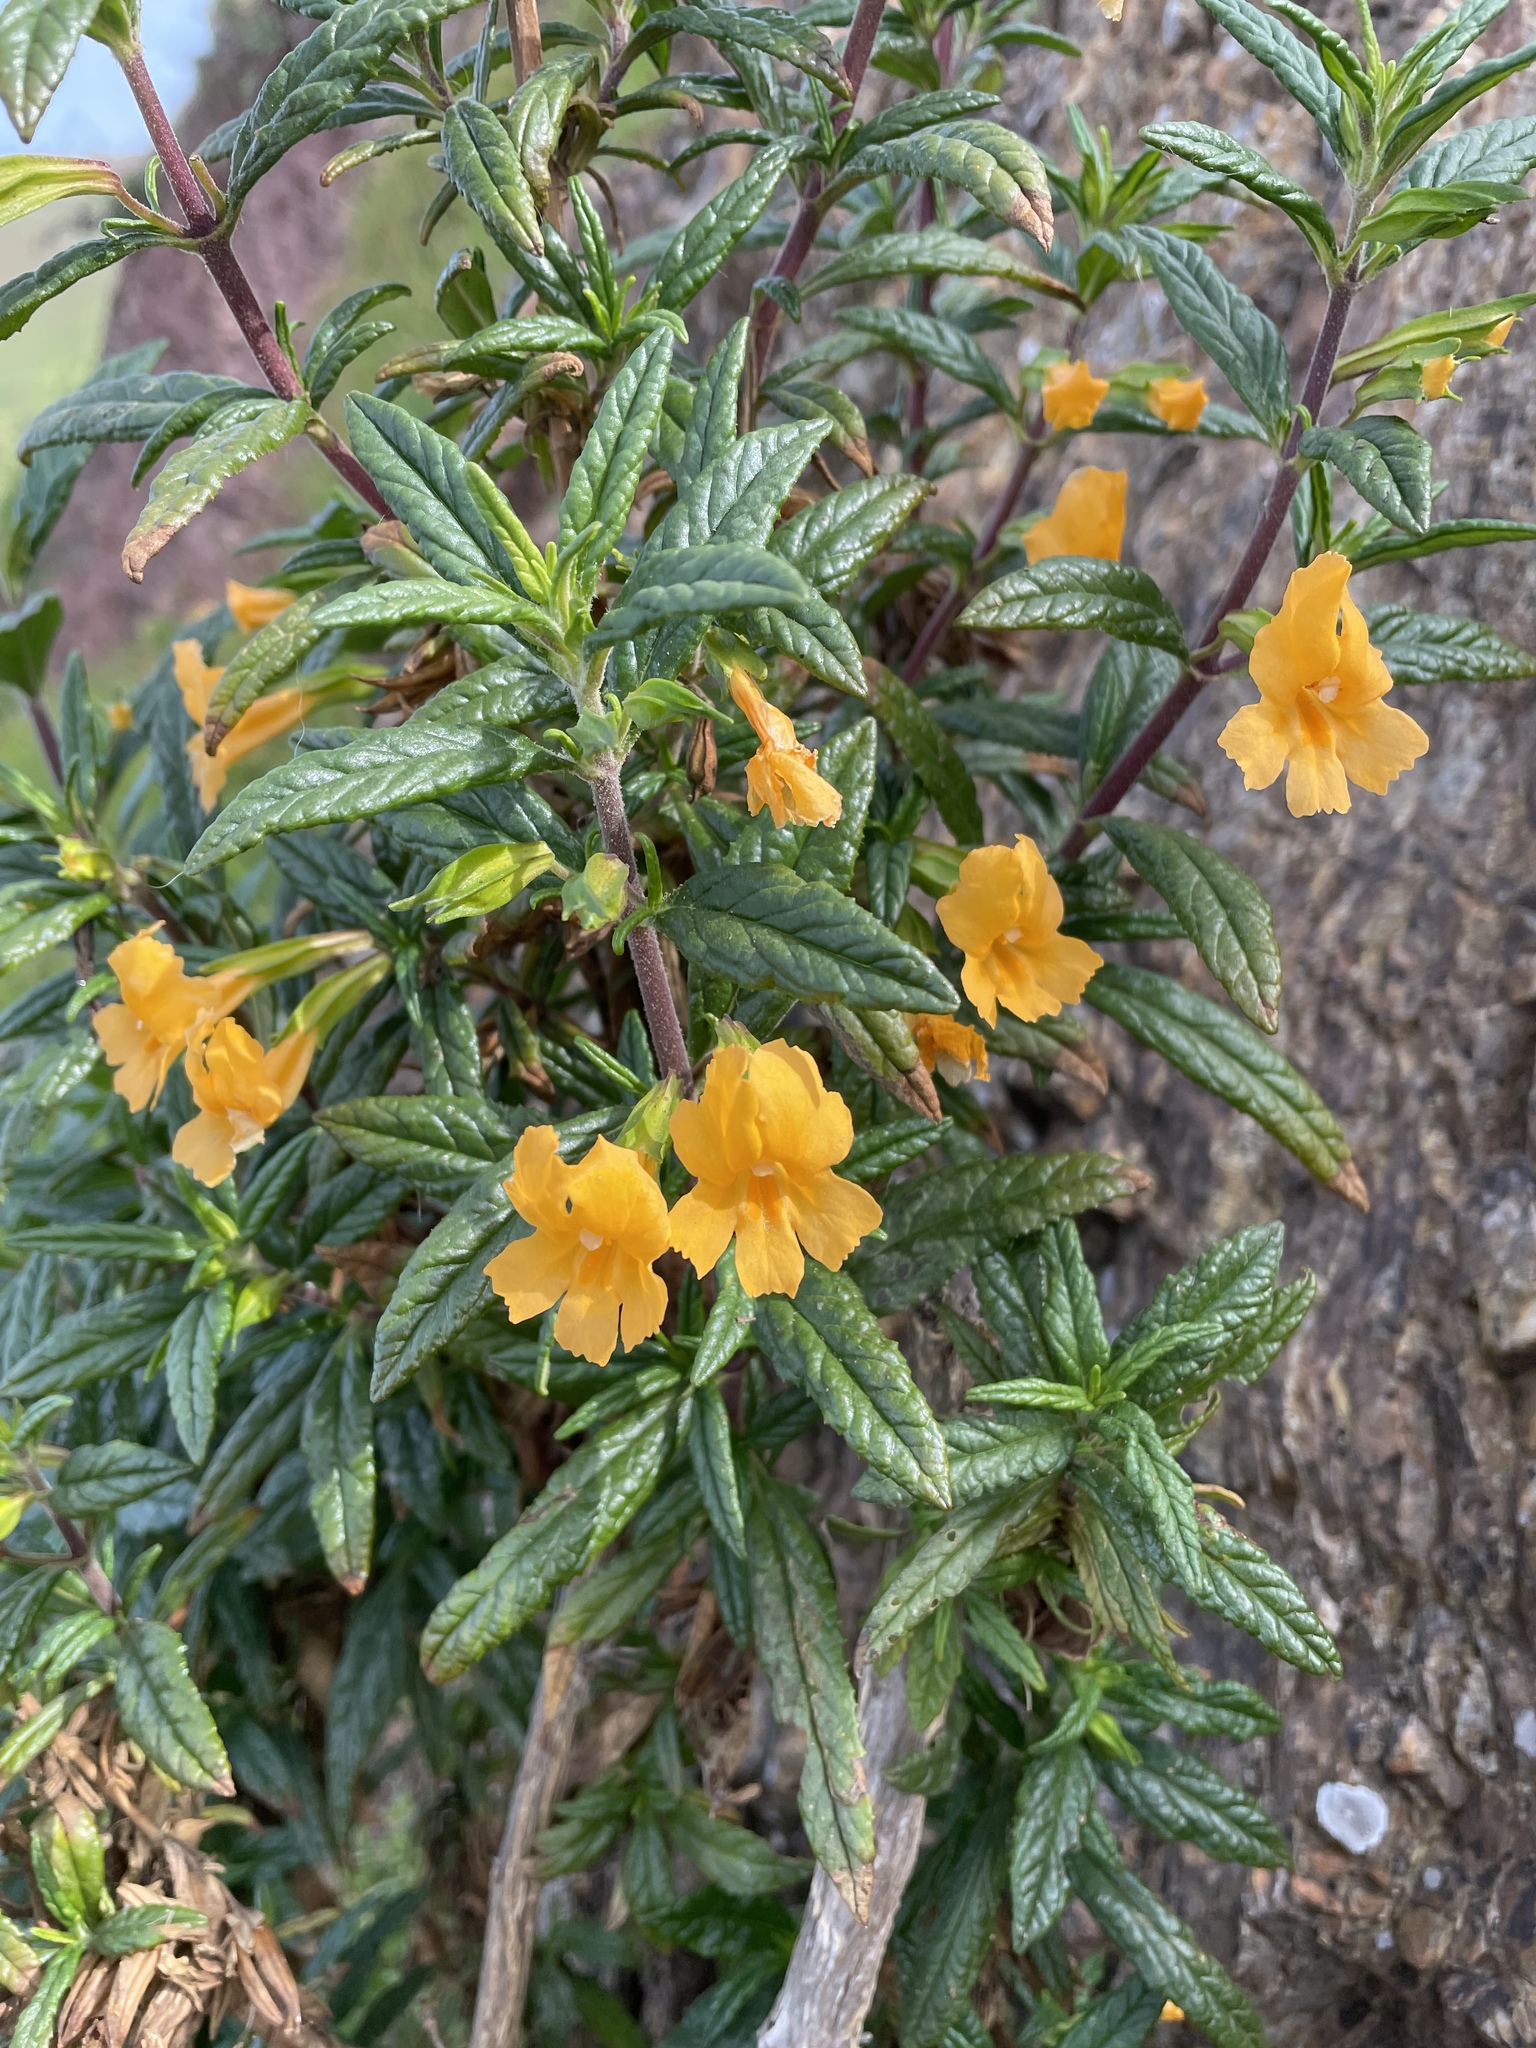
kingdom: Plantae
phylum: Tracheophyta
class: Magnoliopsida
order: Lamiales
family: Phrymaceae
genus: Diplacus
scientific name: Diplacus aurantiacus
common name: Bush monkey-flower
